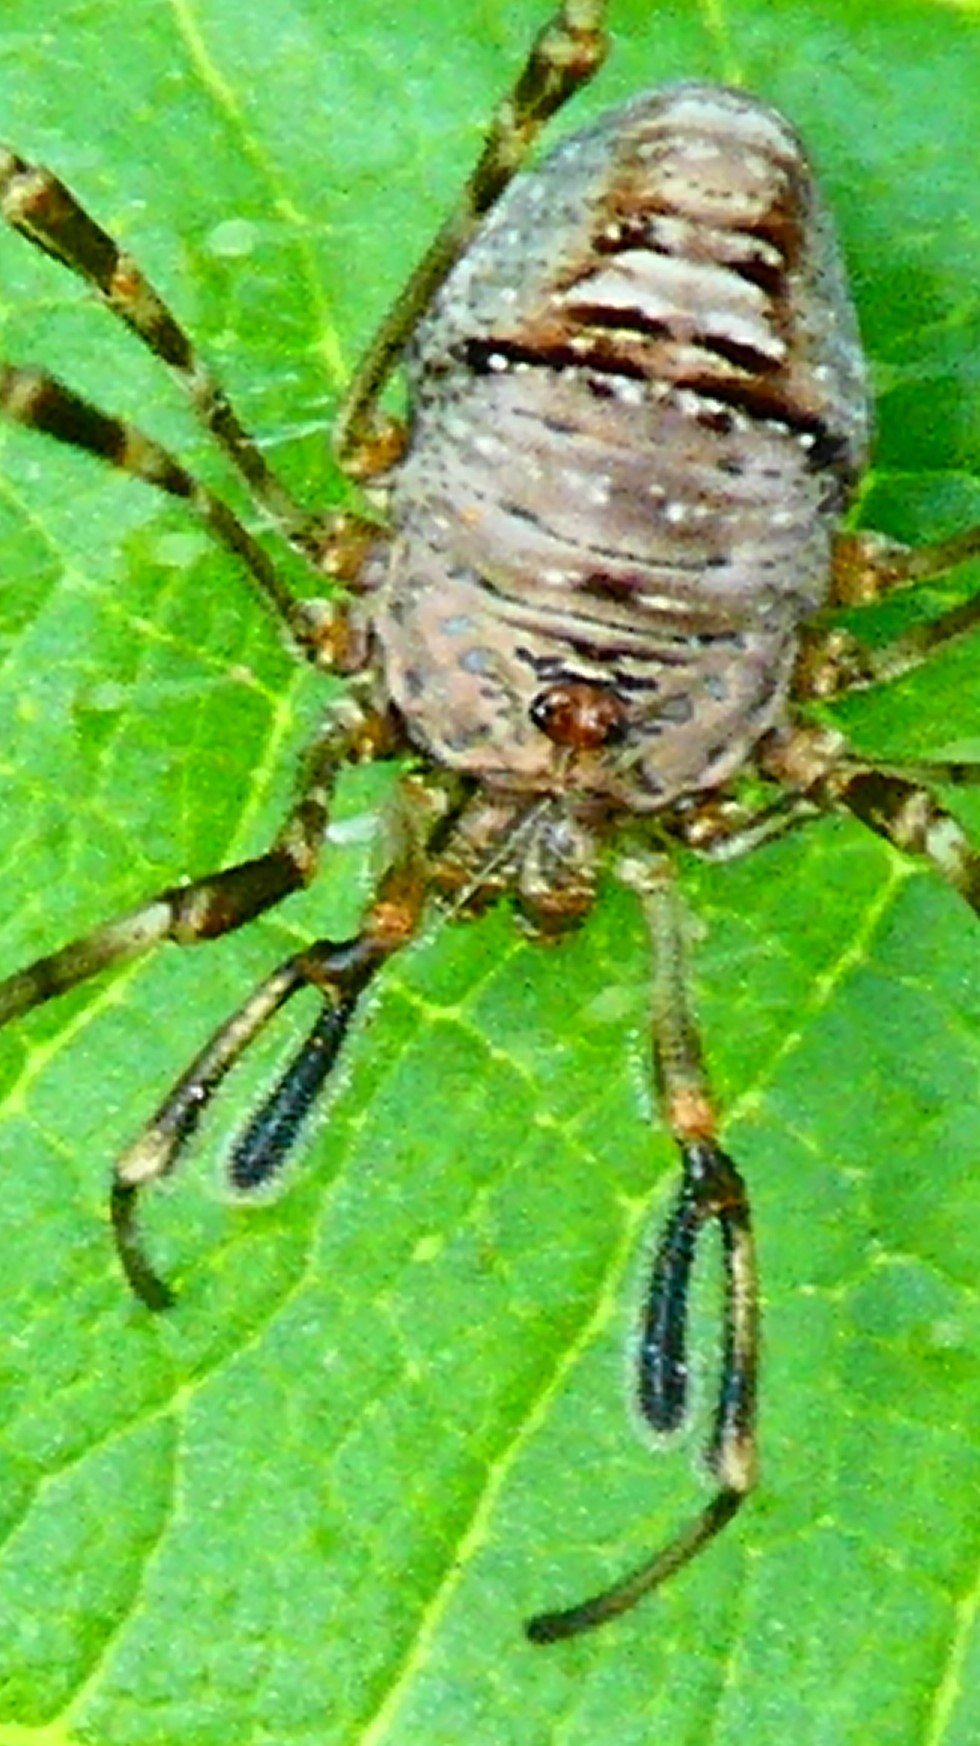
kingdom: Animalia
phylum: Arthropoda
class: Arachnida
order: Opiliones
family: Phalangiidae
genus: Dicranopalpus
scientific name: Dicranopalpus ramosus
